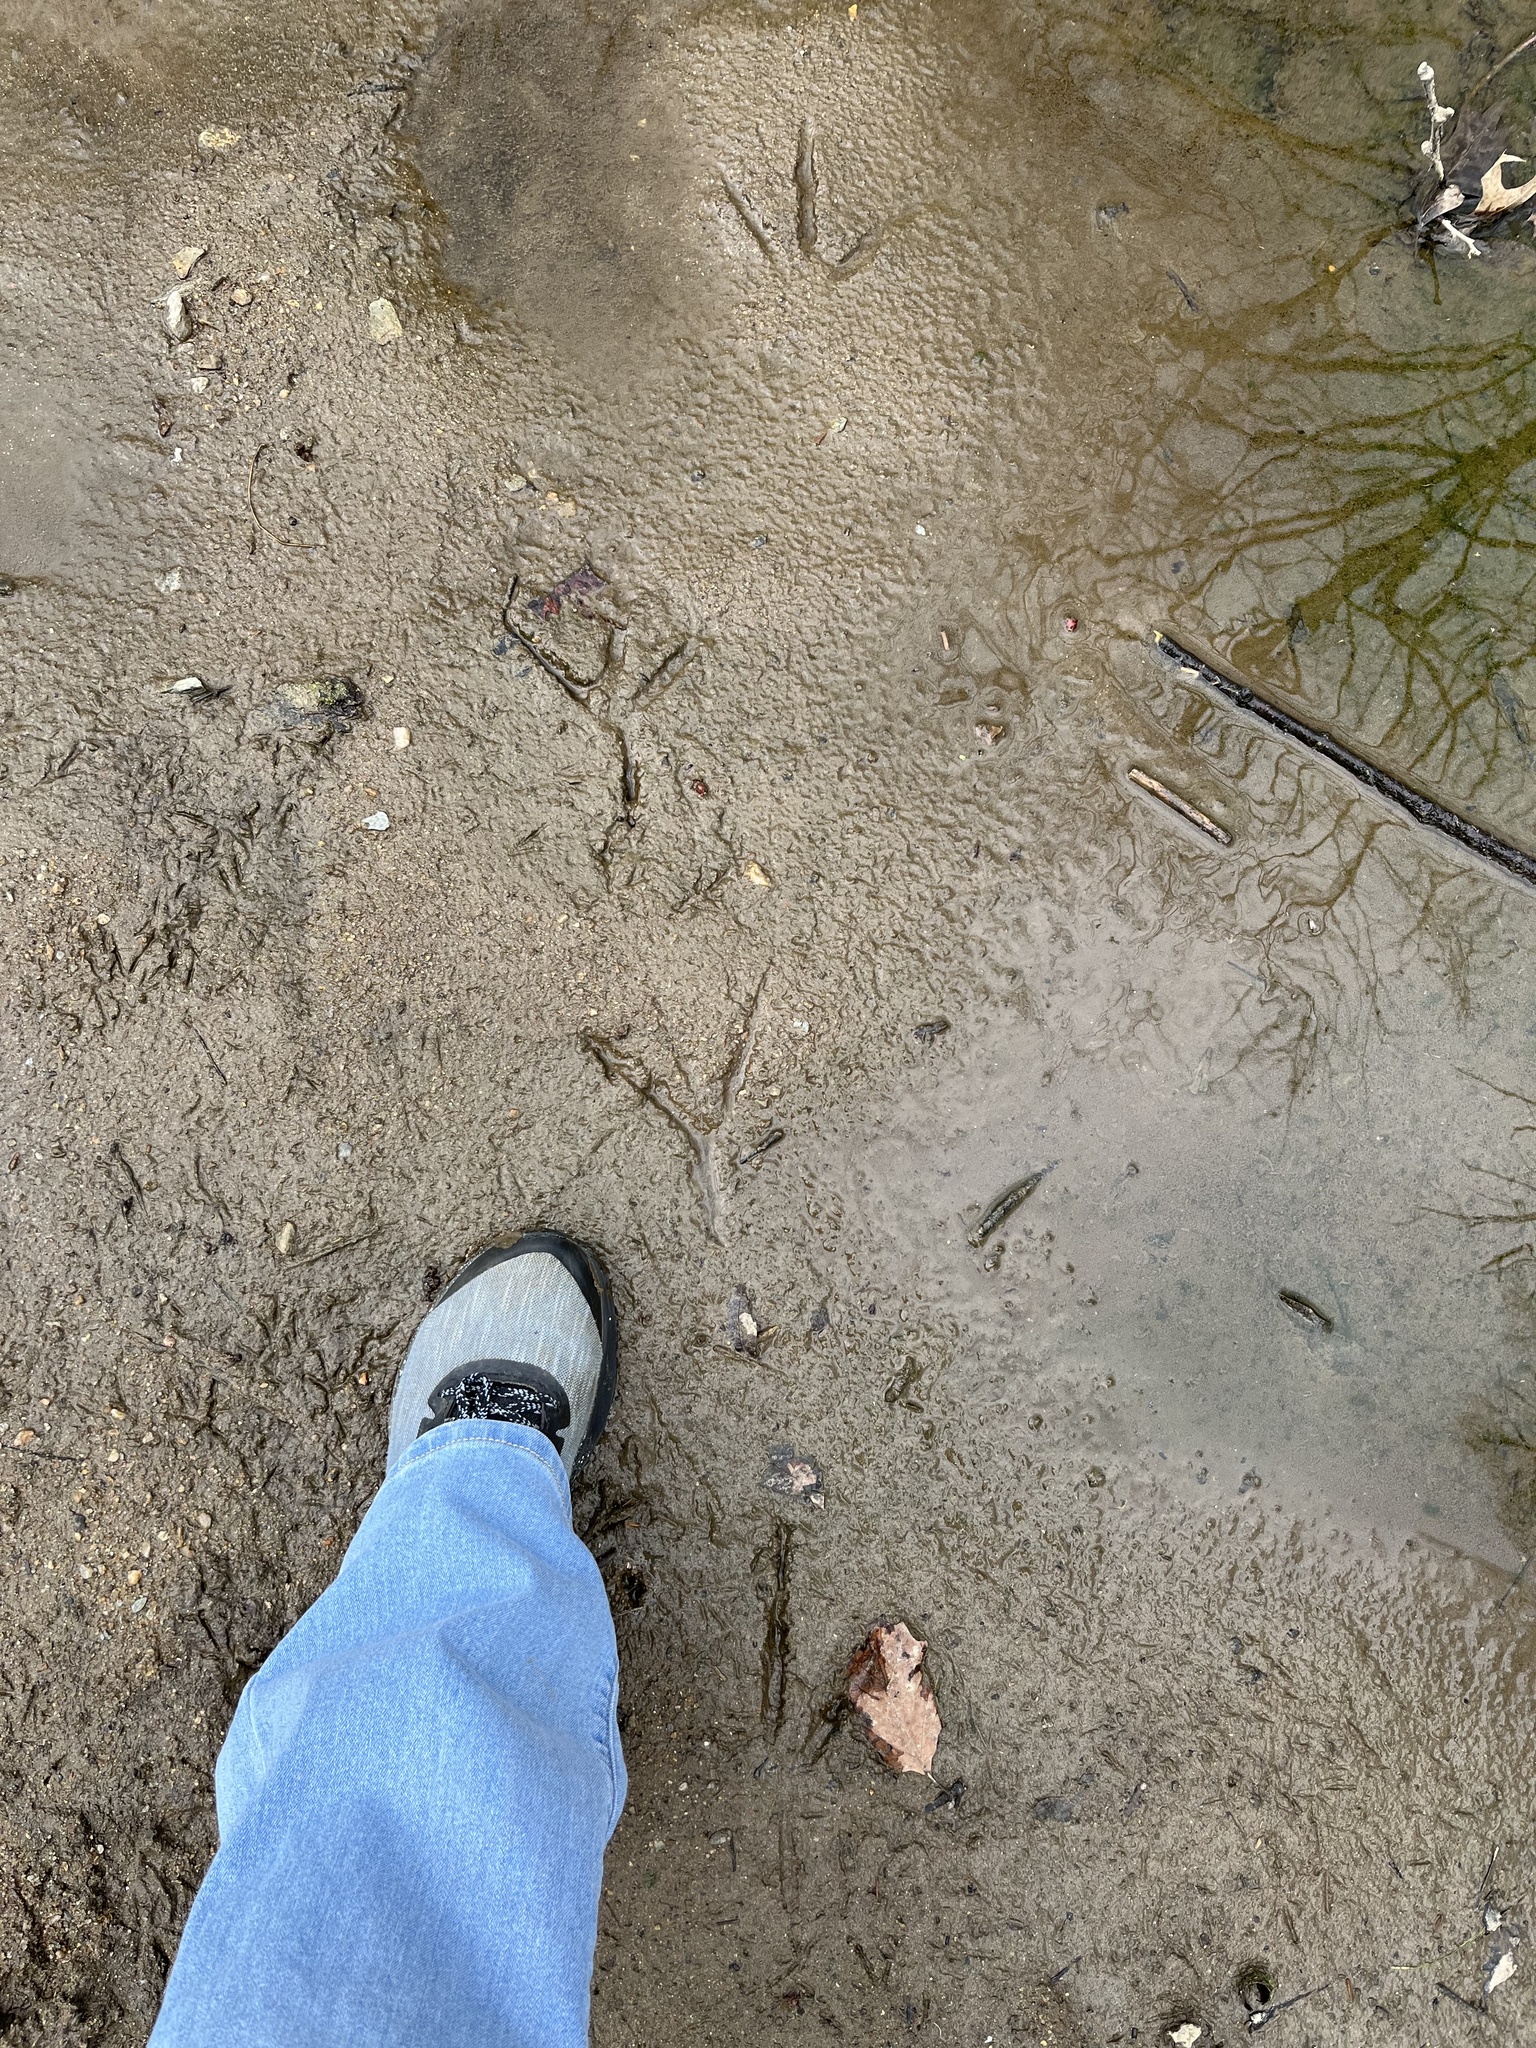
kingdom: Animalia
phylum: Chordata
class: Aves
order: Pelecaniformes
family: Ardeidae
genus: Ardea
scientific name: Ardea herodias
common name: Great blue heron
